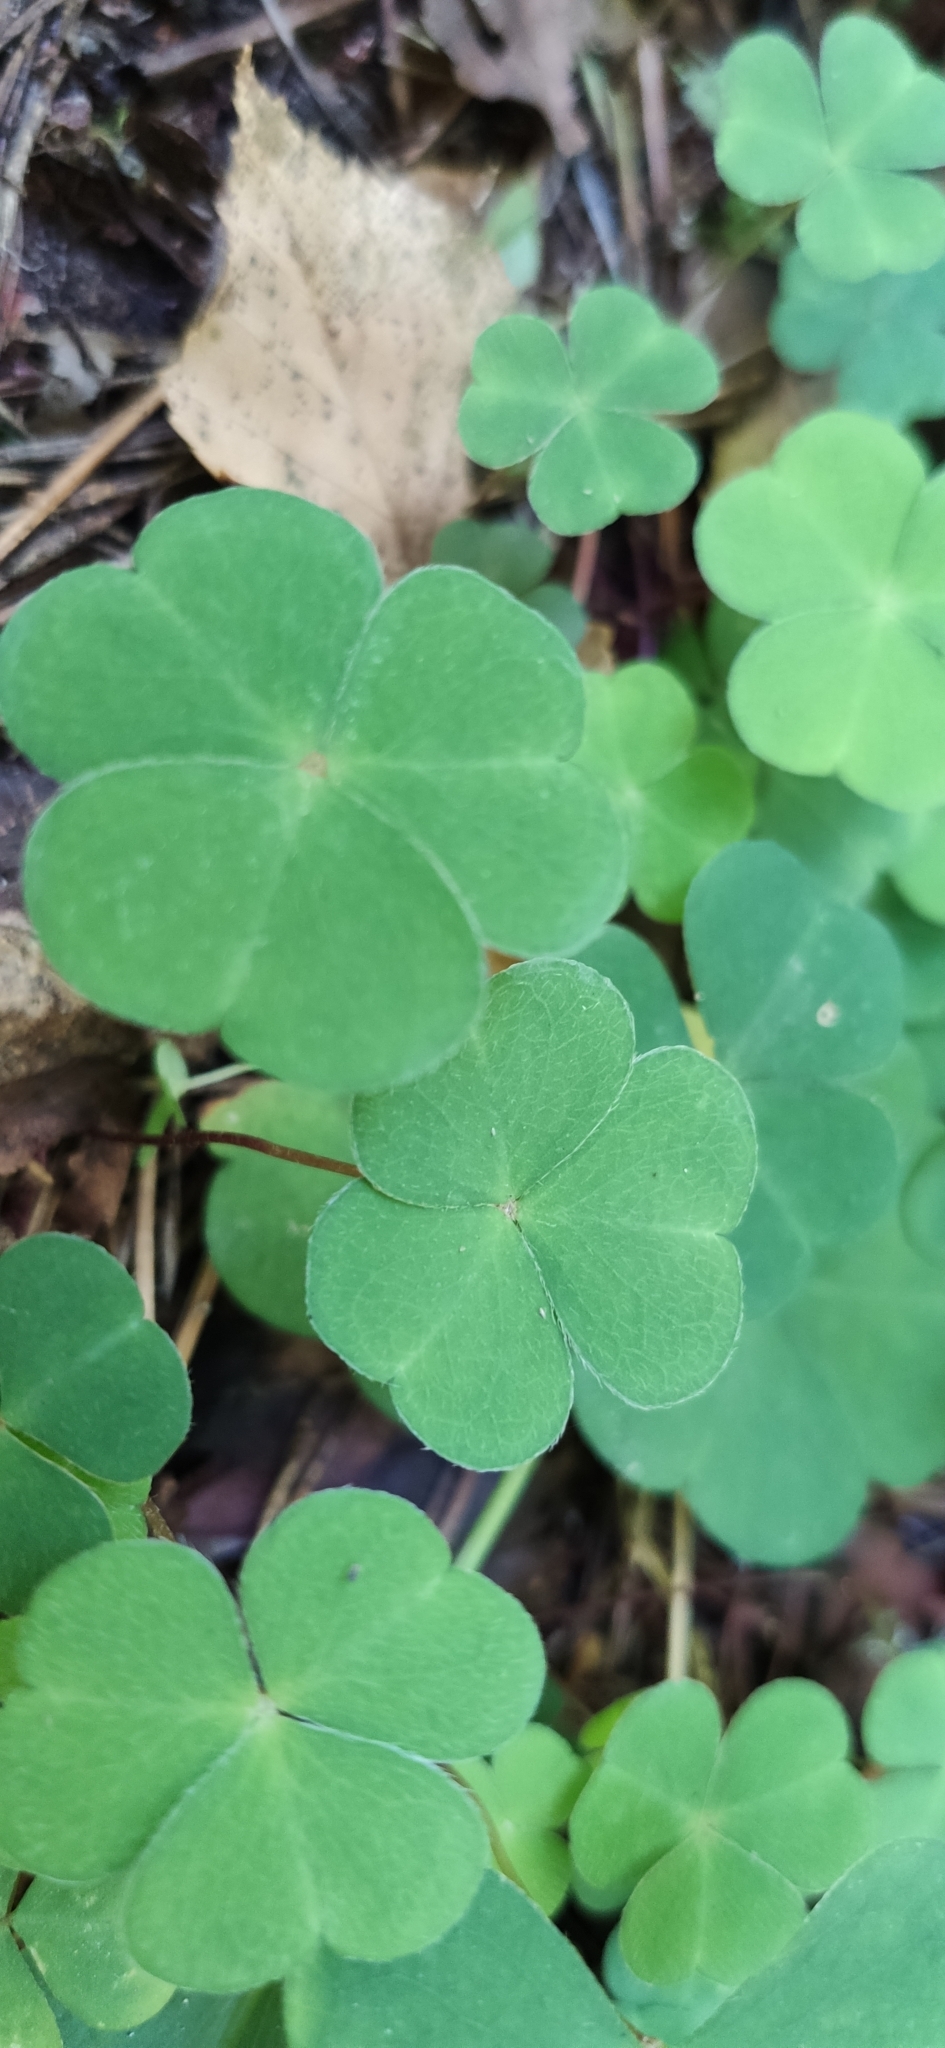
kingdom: Plantae
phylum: Tracheophyta
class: Magnoliopsida
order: Oxalidales
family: Oxalidaceae
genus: Oxalis
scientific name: Oxalis acetosella
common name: Wood-sorrel
